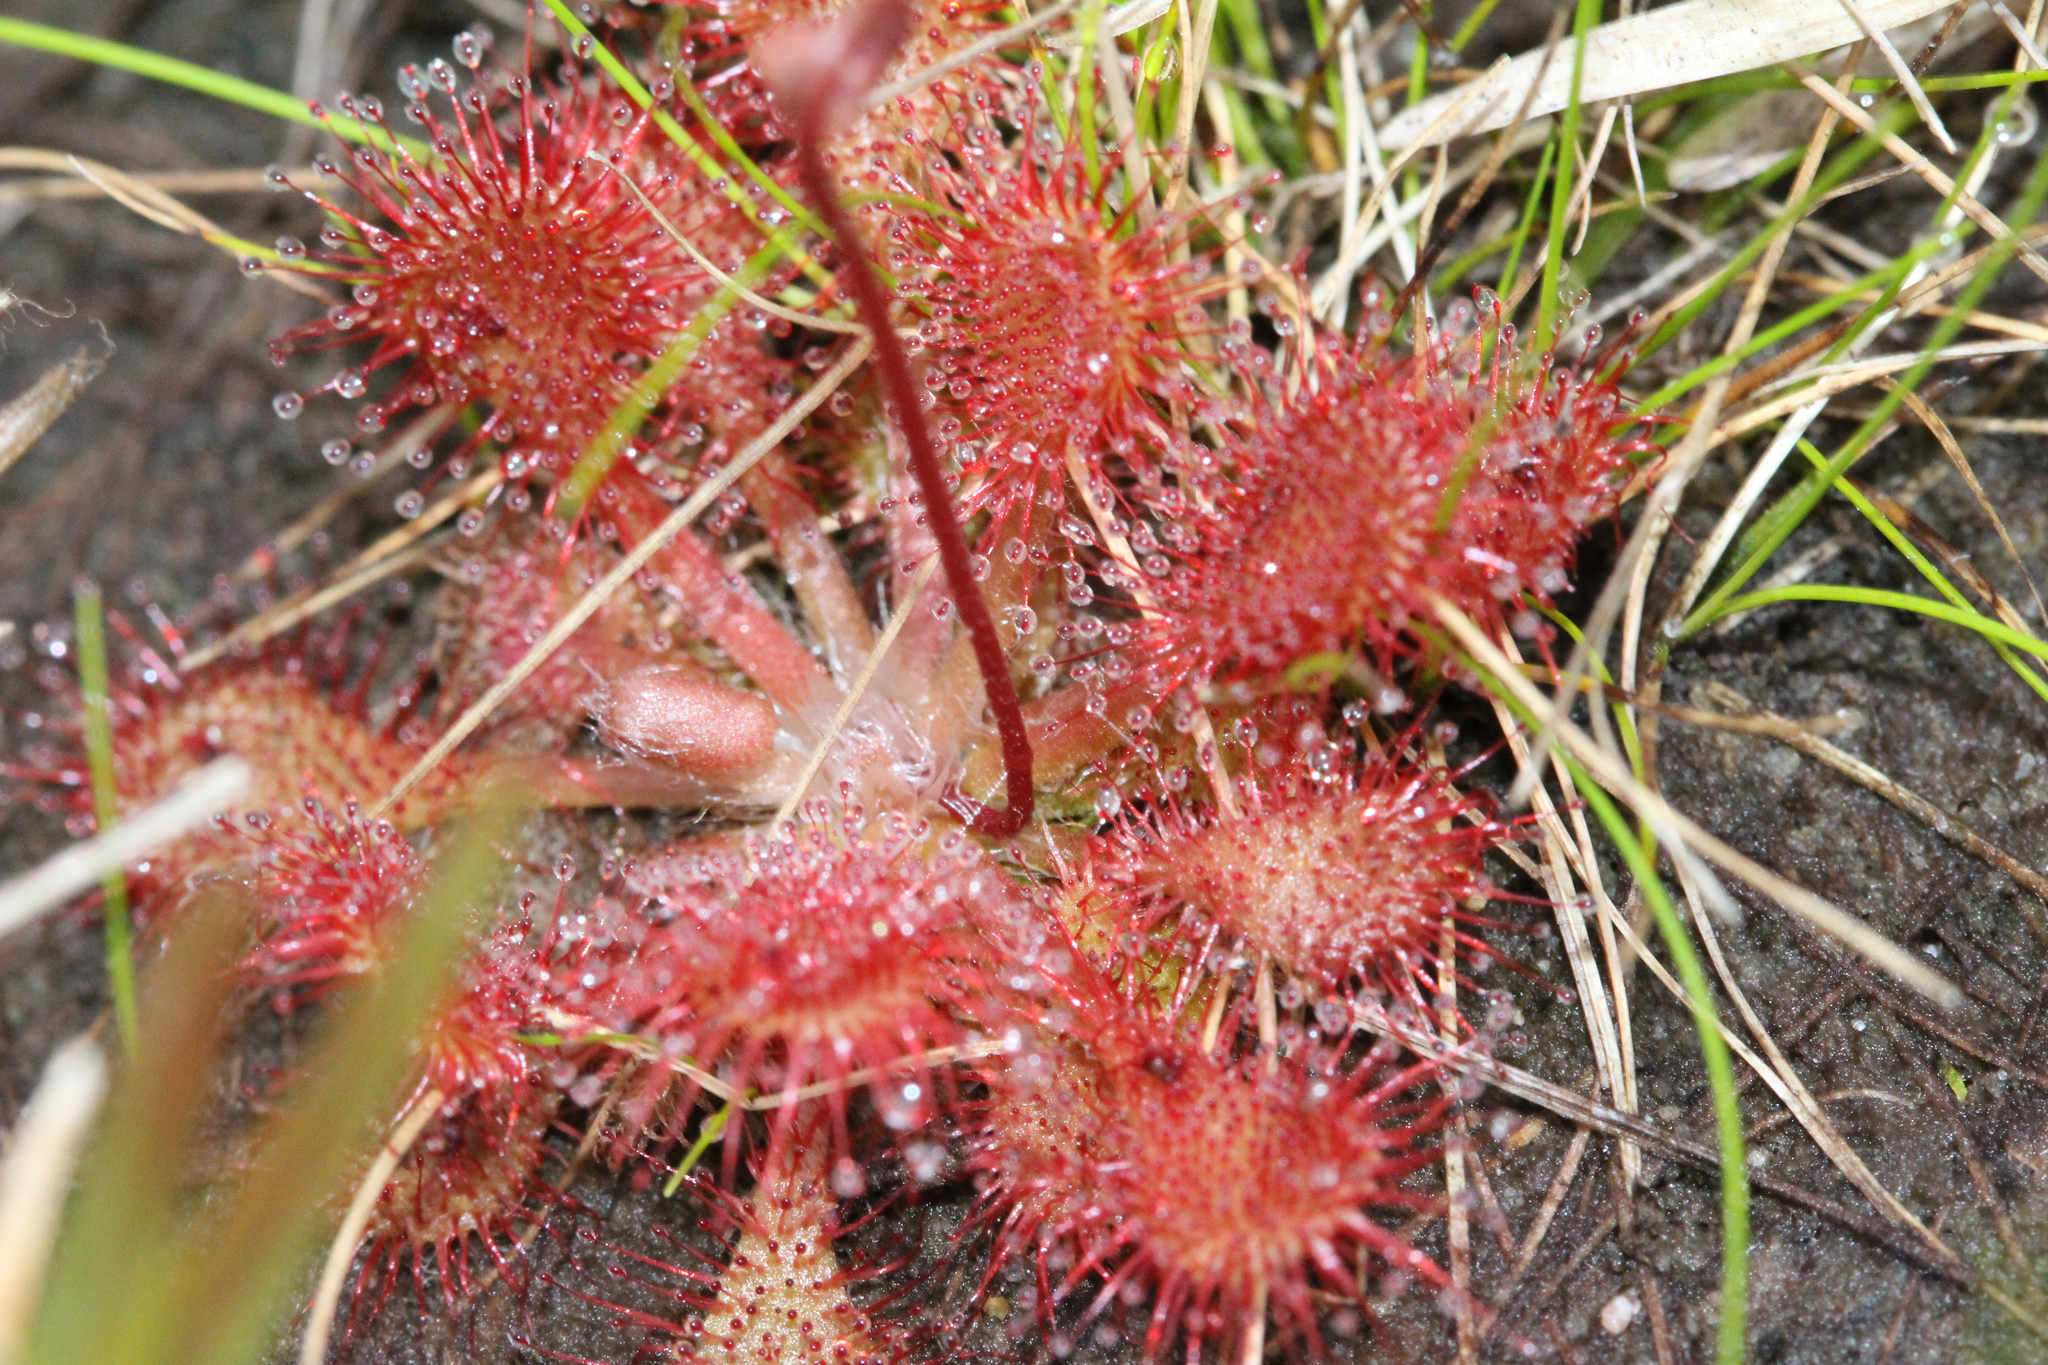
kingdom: Plantae
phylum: Tracheophyta
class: Magnoliopsida
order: Caryophyllales
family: Droseraceae
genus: Drosera
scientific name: Drosera capillaris
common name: Pink sundew
